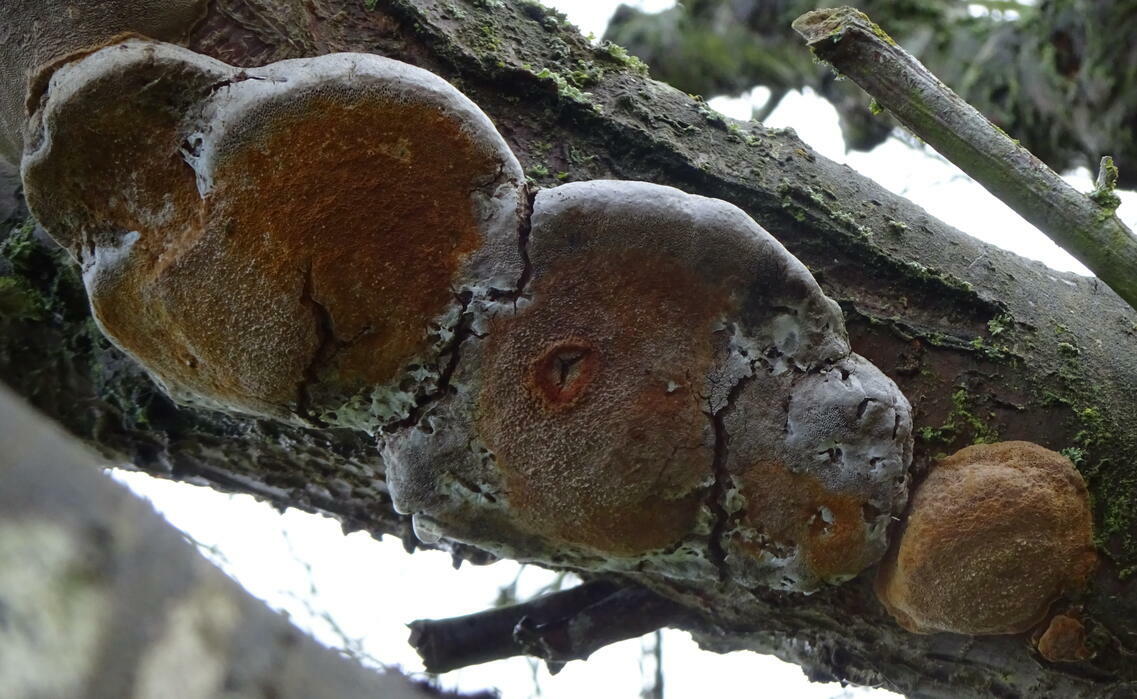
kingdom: Fungi
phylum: Basidiomycota
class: Agaricomycetes
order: Hymenochaetales
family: Hymenochaetaceae
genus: Phellinus
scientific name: Phellinus pomaceus
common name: Cushion bracket
